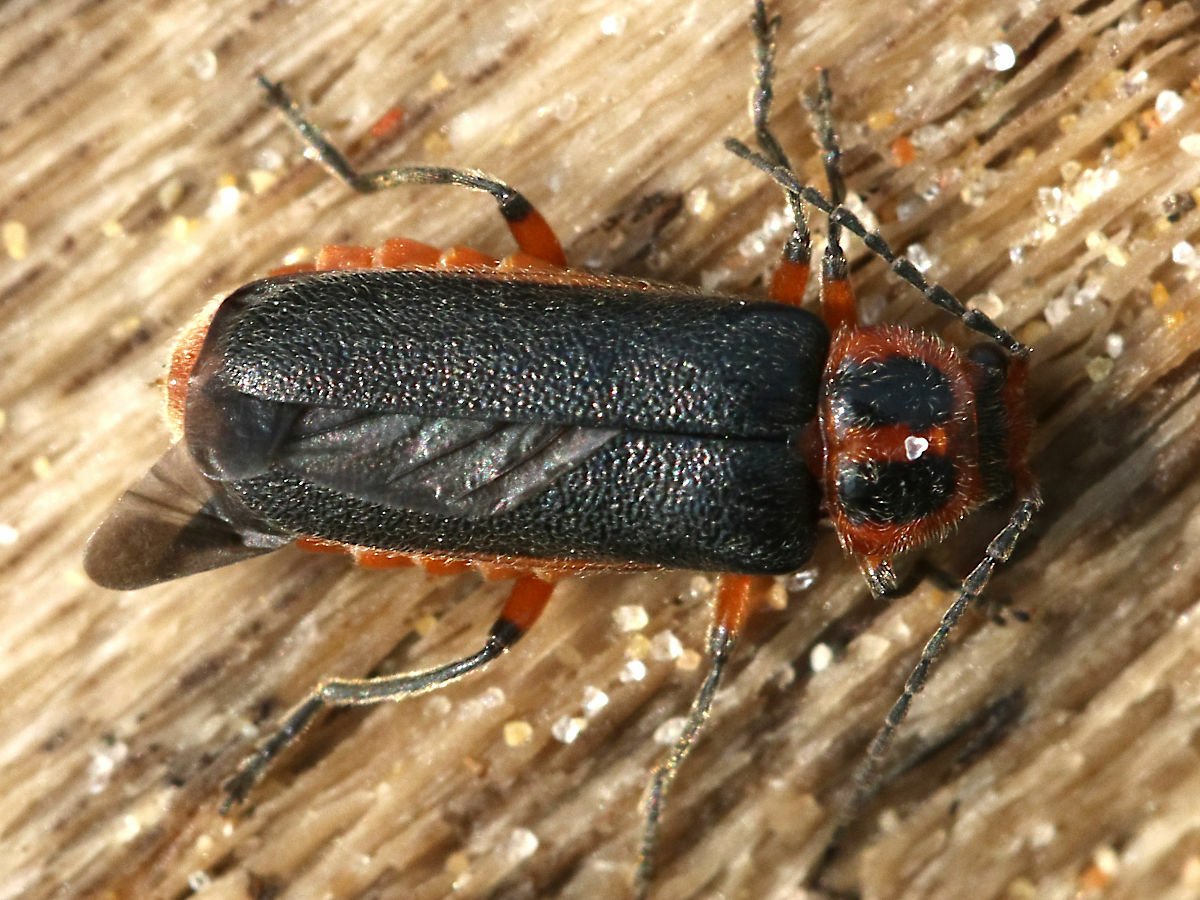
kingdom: Animalia
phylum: Arthropoda
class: Insecta
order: Coleoptera
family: Cantharidae
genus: Atalantycha
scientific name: Atalantycha bilineata
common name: Two-lined leatherwing
